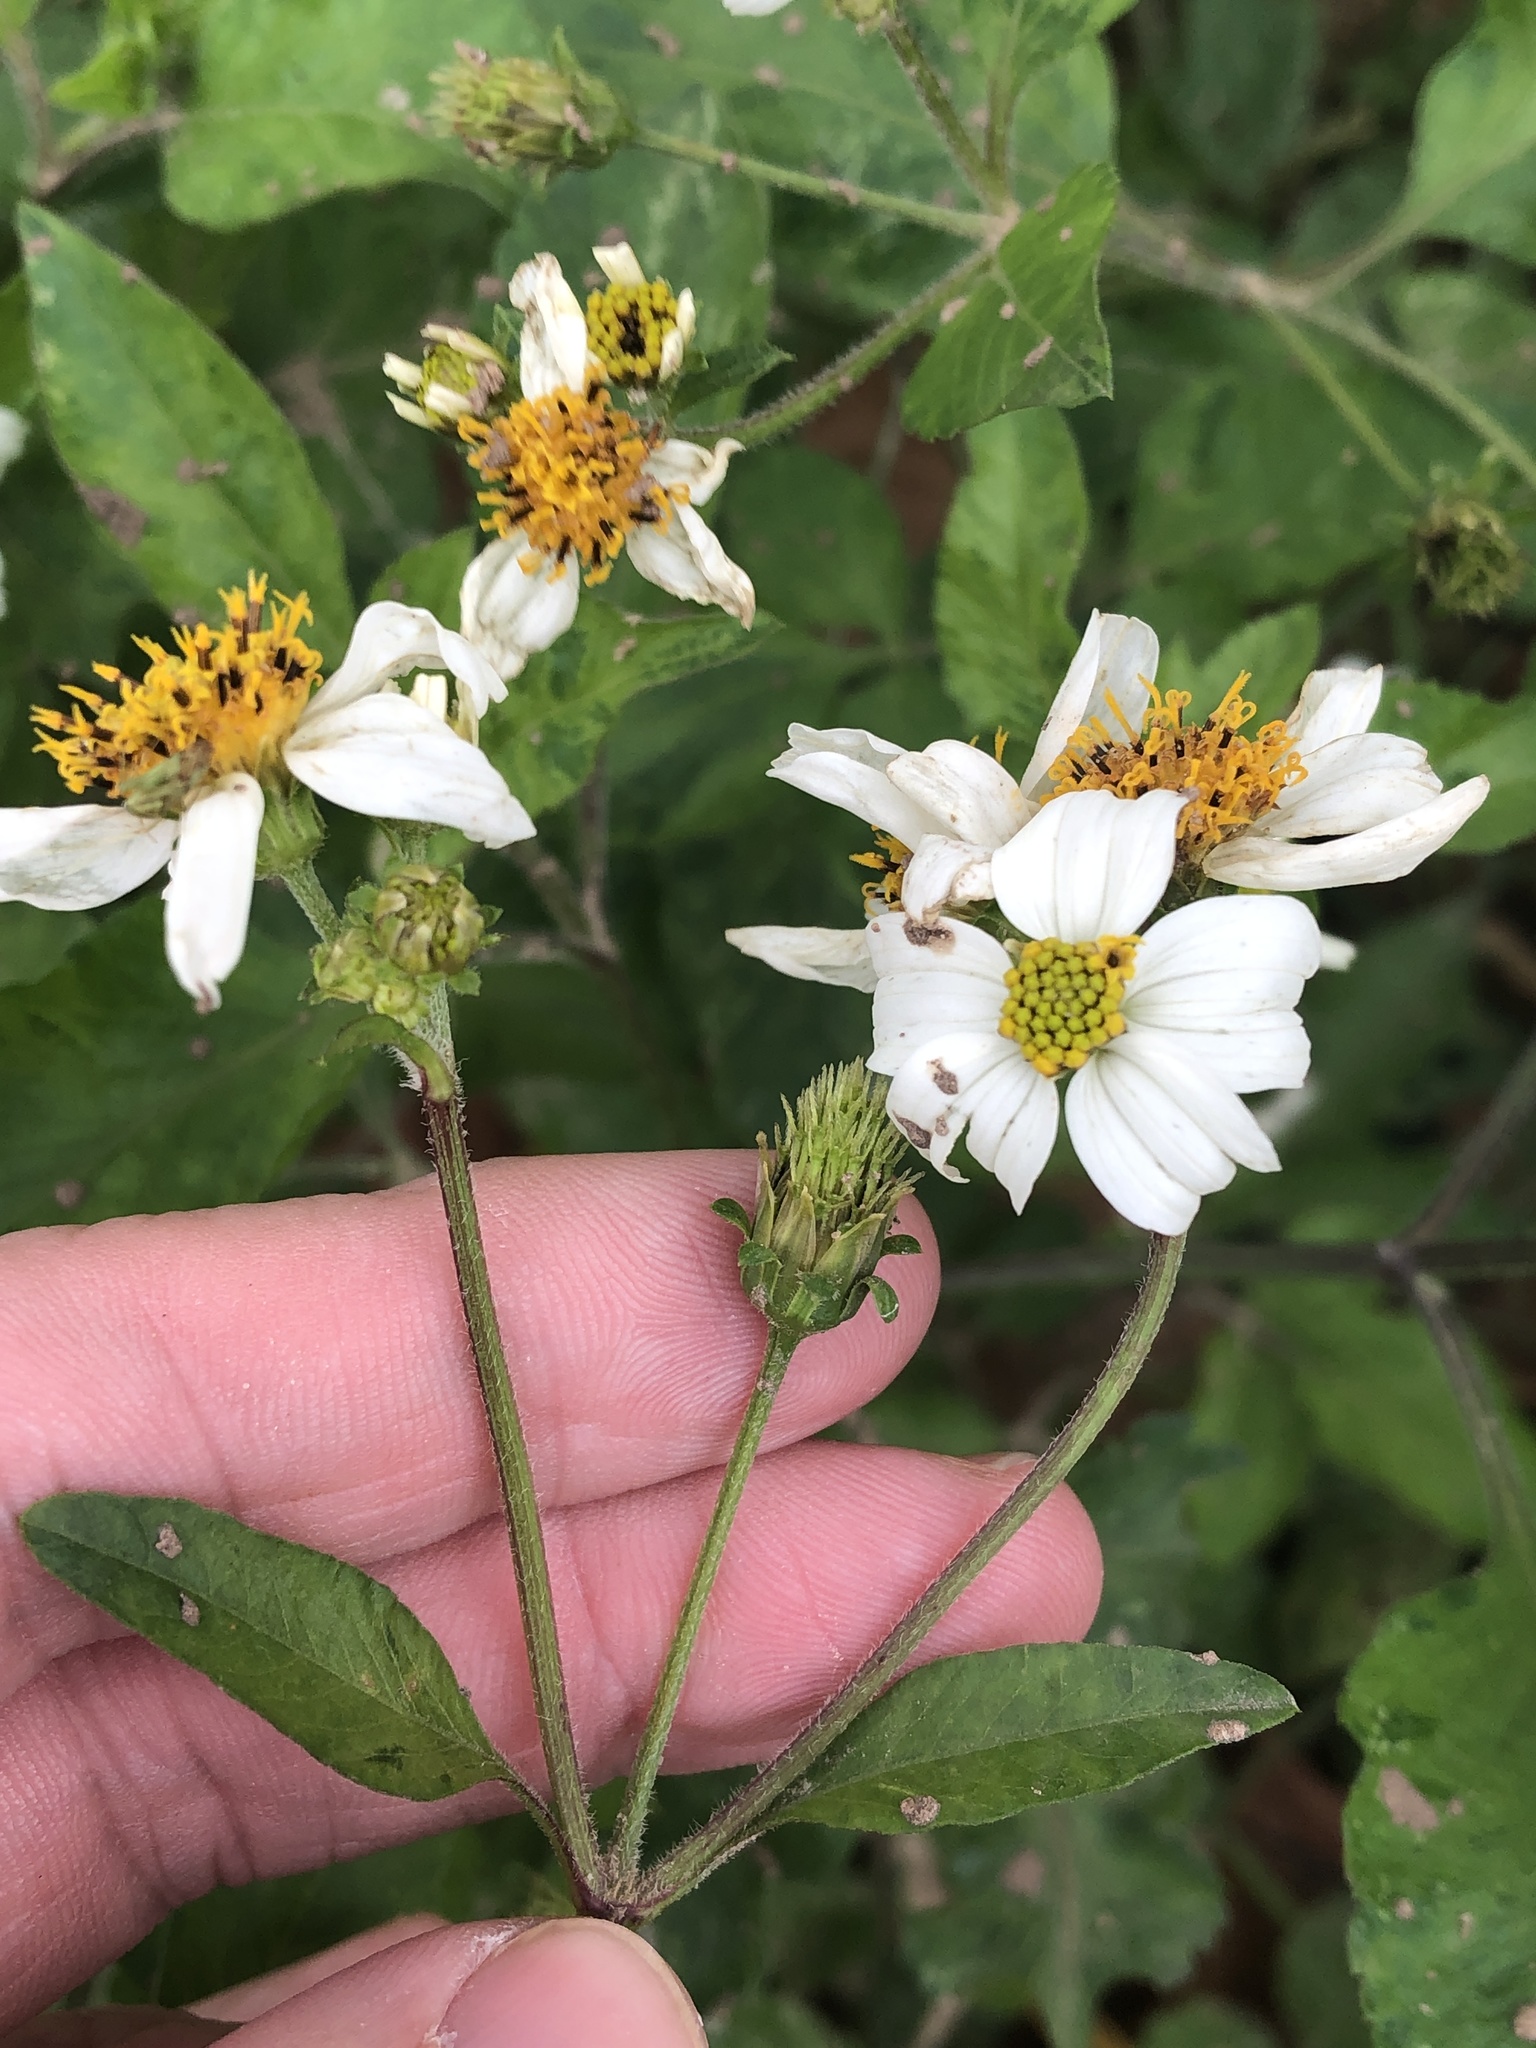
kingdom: Plantae
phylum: Tracheophyta
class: Magnoliopsida
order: Asterales
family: Asteraceae
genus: Bidens
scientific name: Bidens alba
